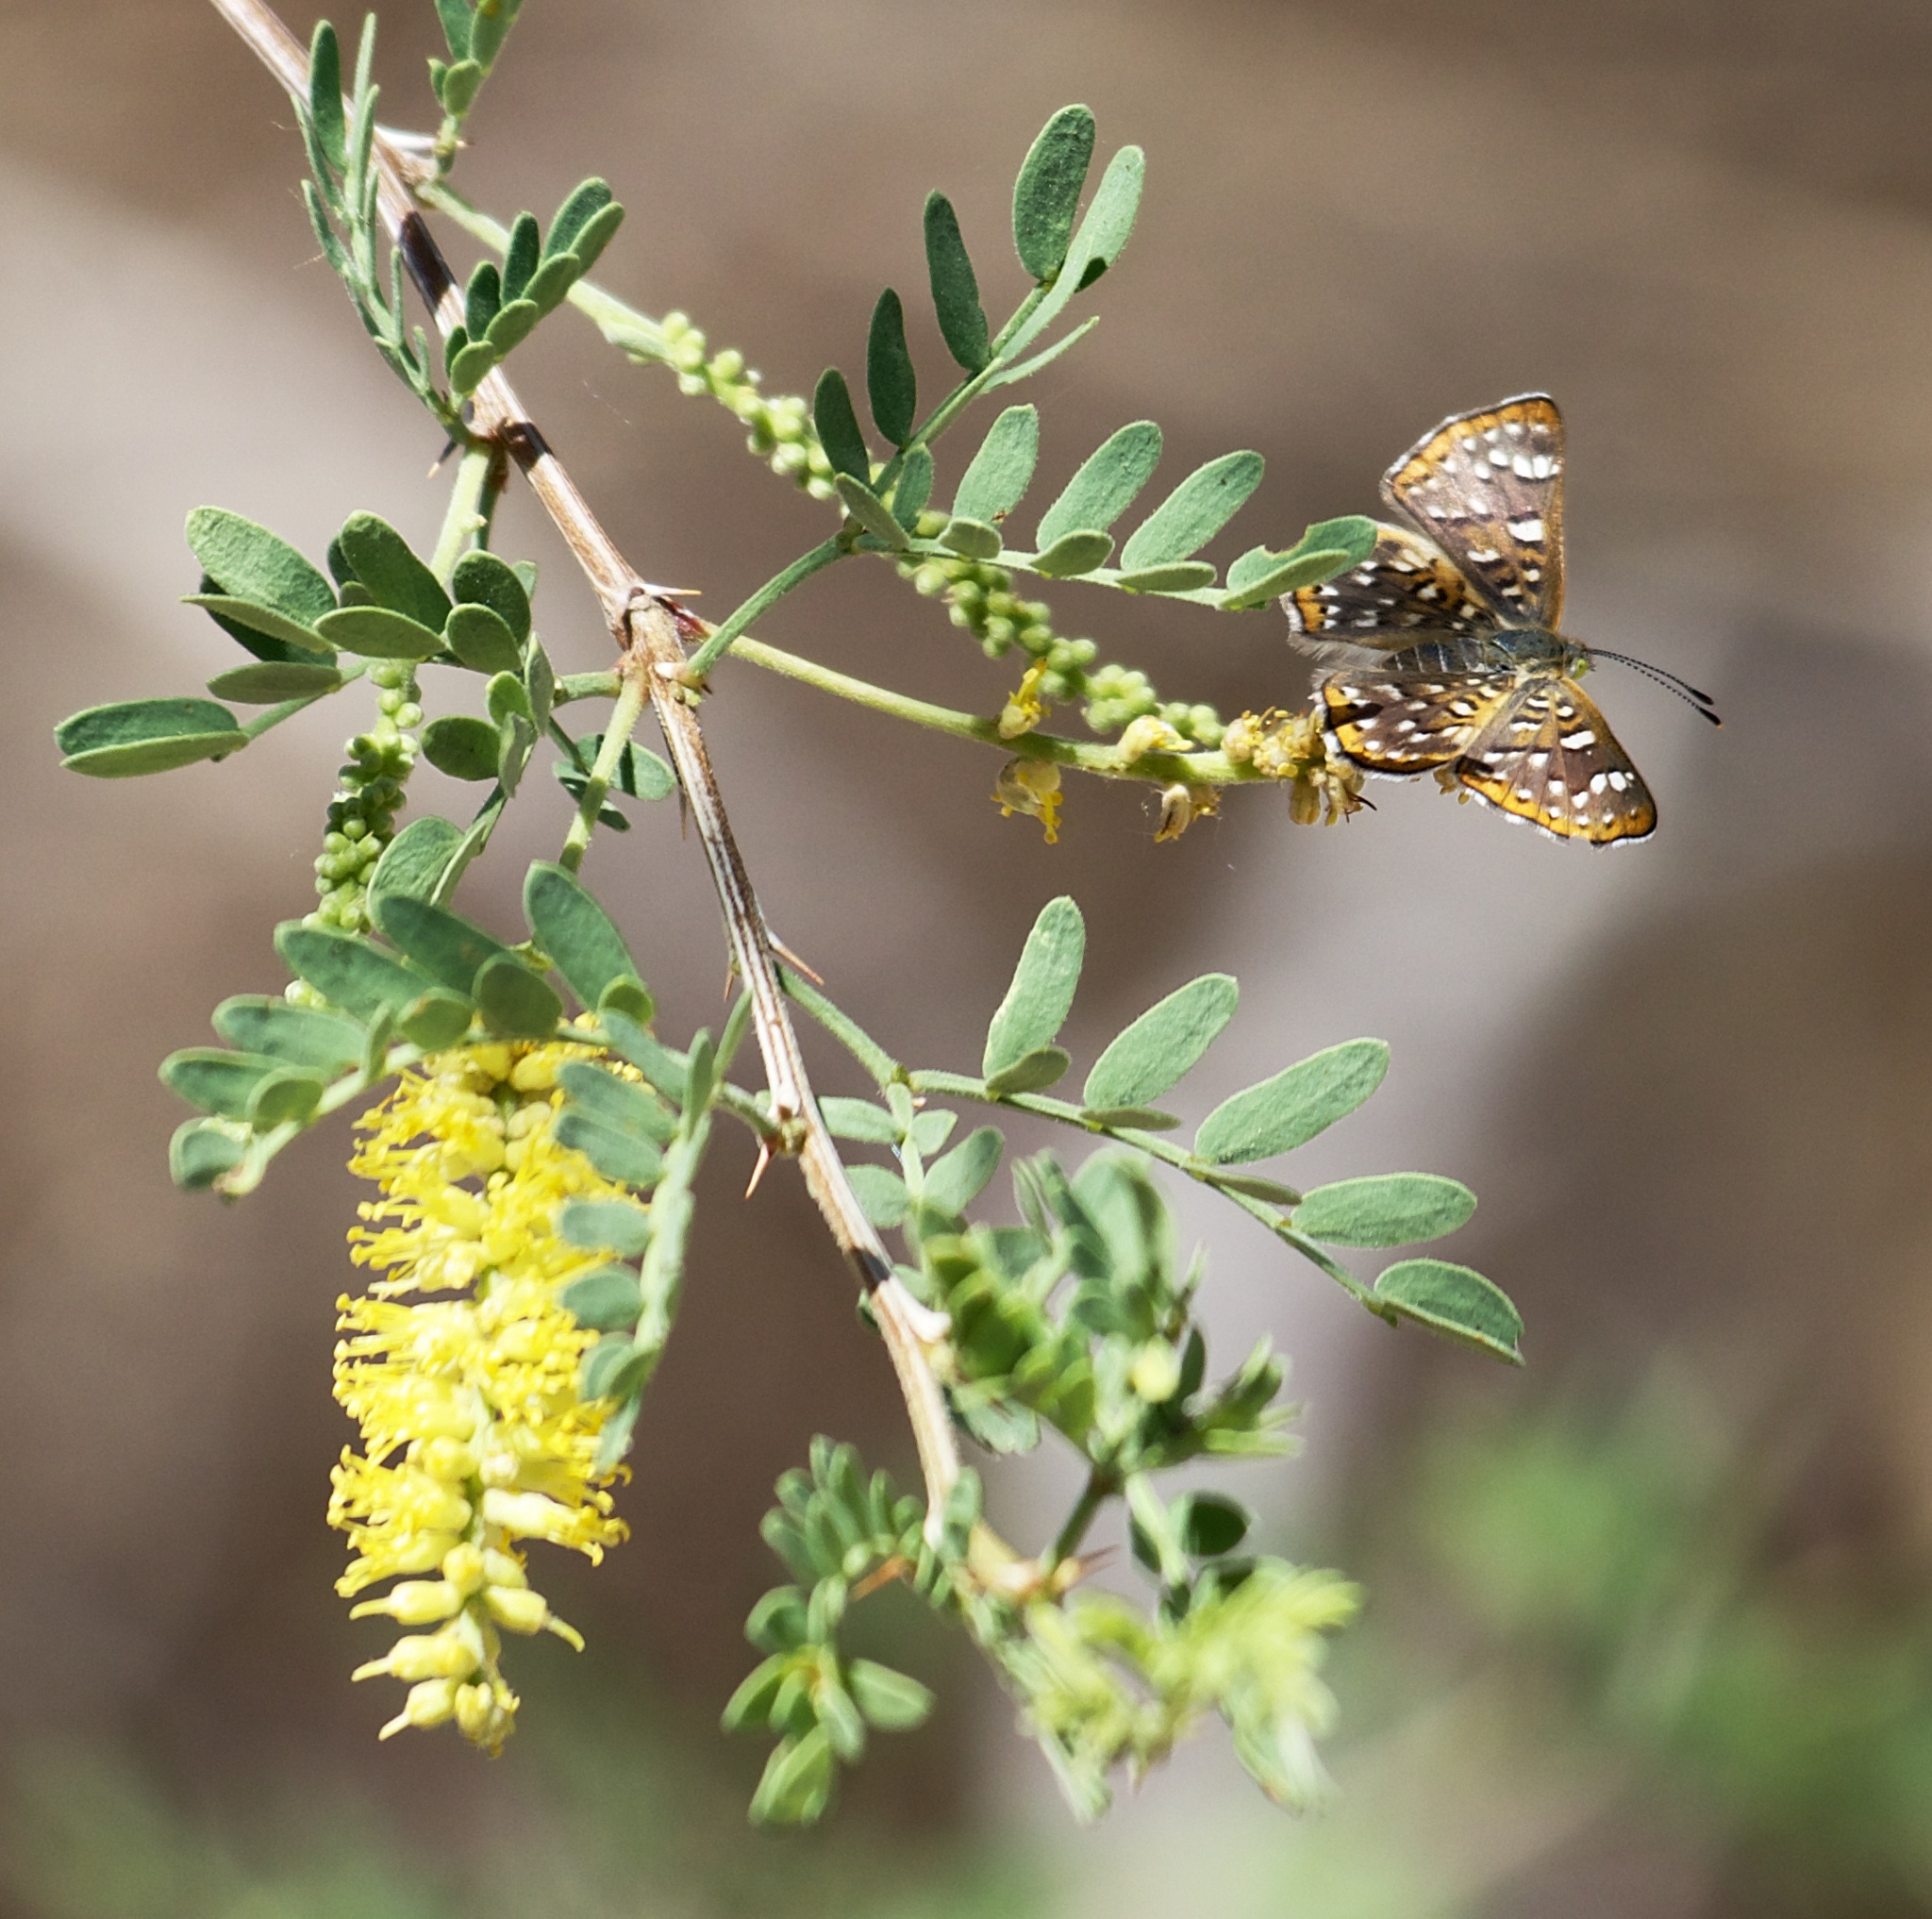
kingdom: Animalia
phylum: Arthropoda
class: Insecta
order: Lepidoptera
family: Riodinidae
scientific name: Riodinidae
